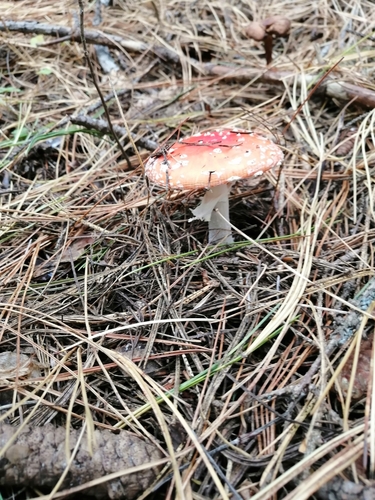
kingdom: Fungi
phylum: Basidiomycota
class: Agaricomycetes
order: Agaricales
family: Amanitaceae
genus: Amanita
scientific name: Amanita muscaria
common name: Fly agaric
